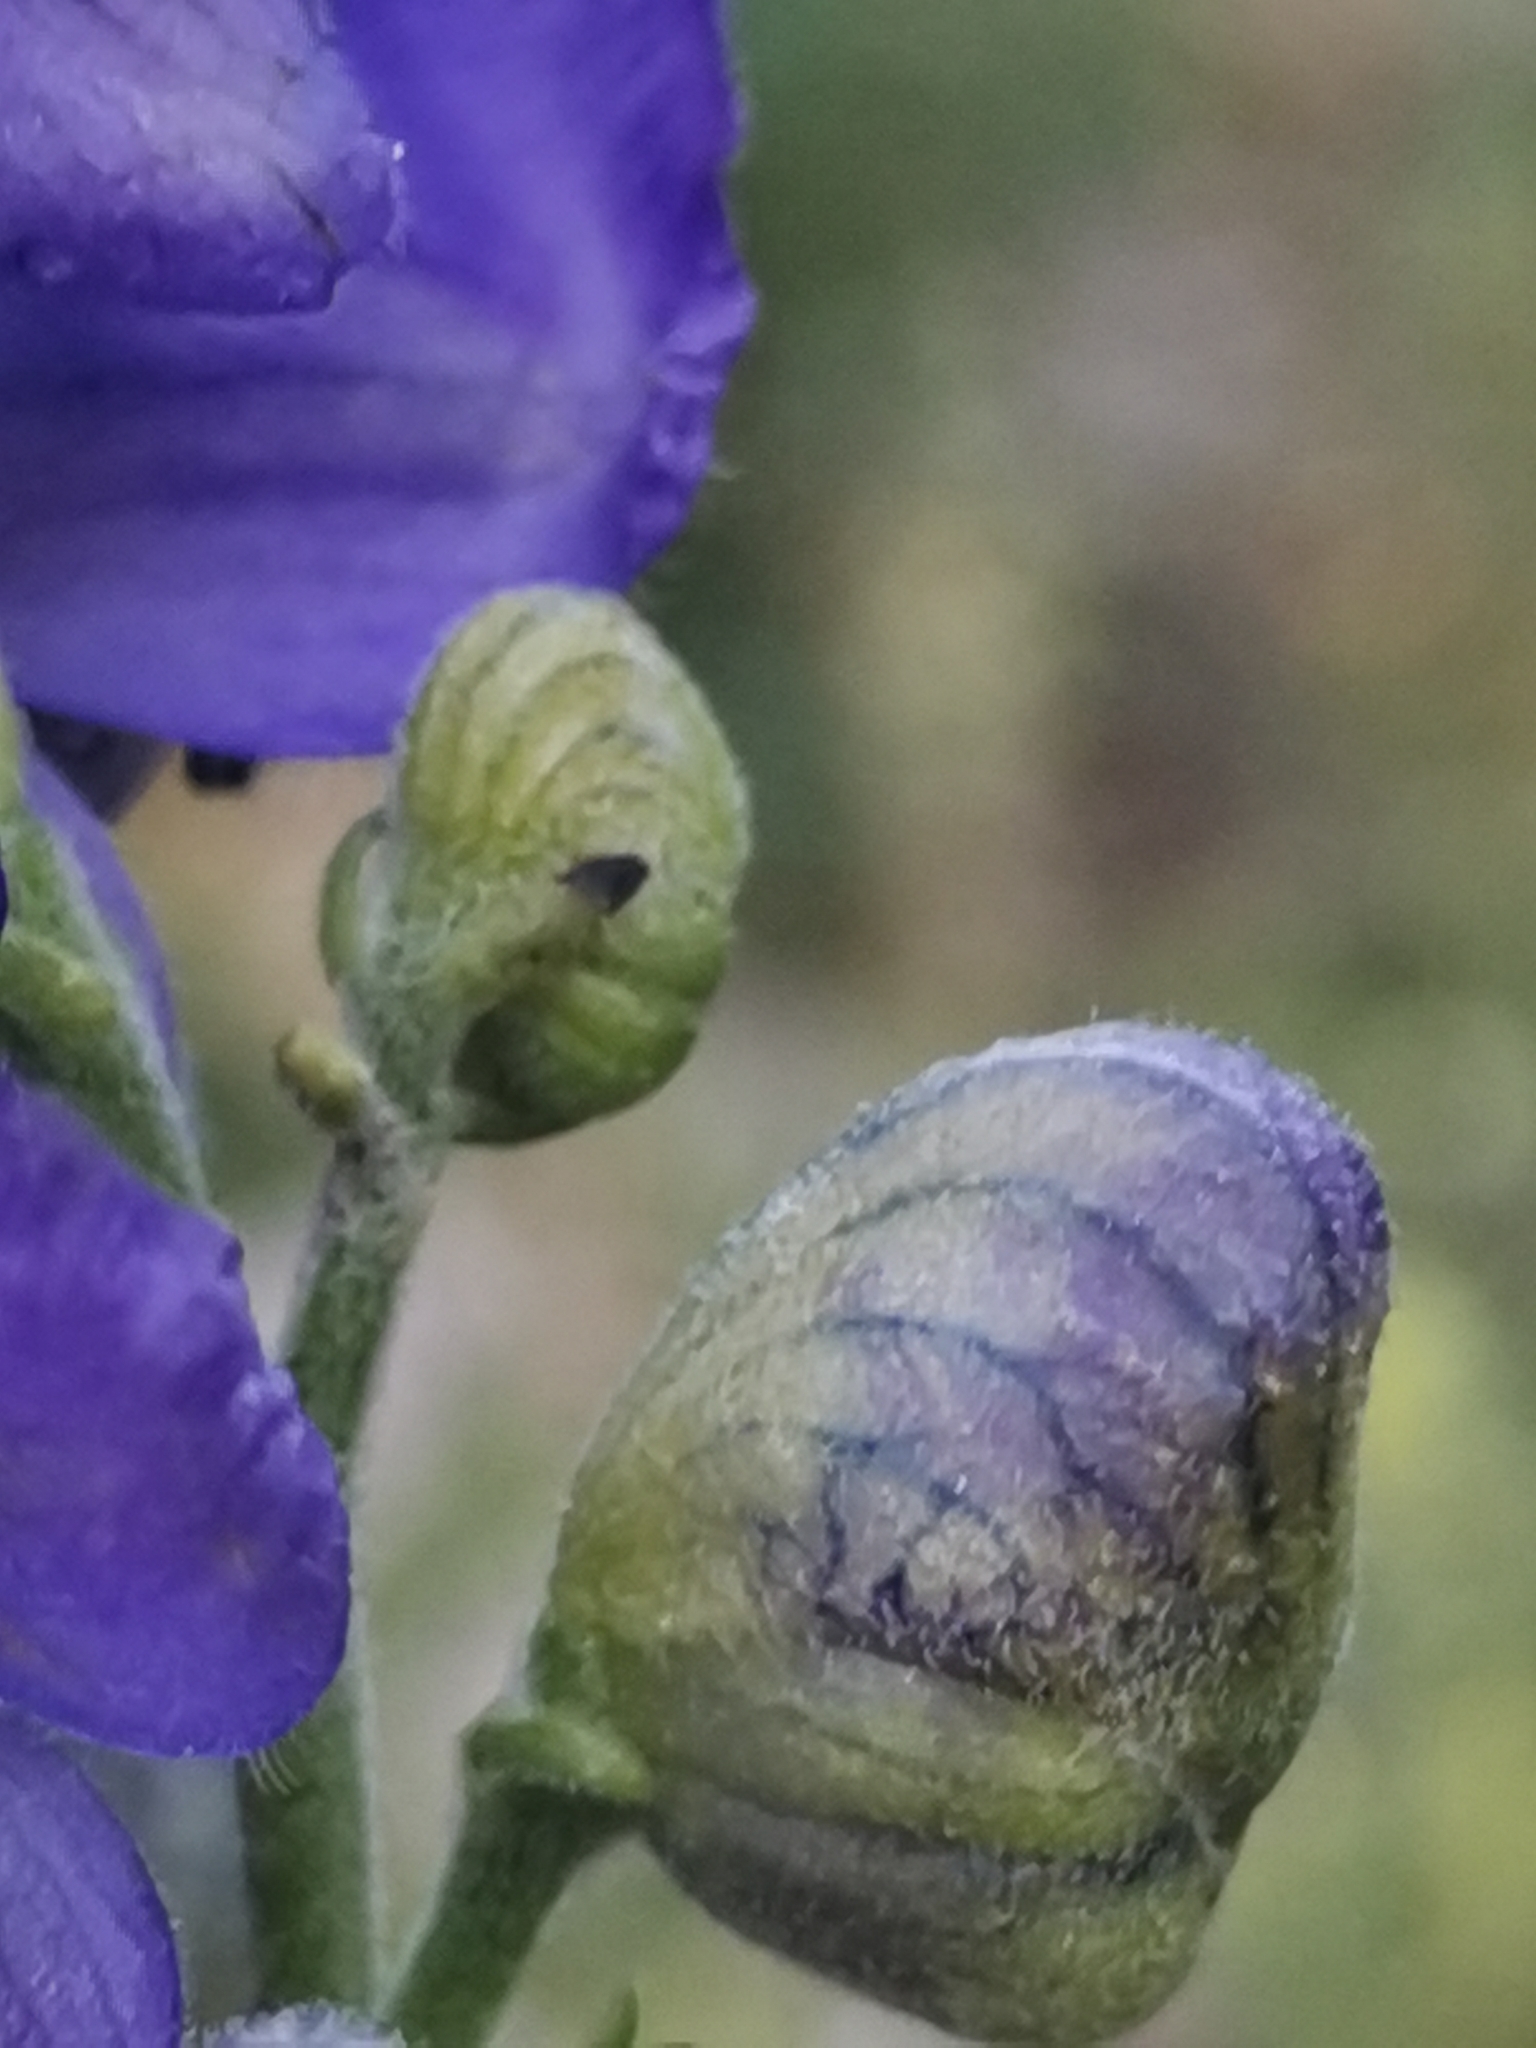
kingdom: Plantae
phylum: Tracheophyta
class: Magnoliopsida
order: Ranunculales
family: Ranunculaceae
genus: Aconitum
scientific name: Aconitum napellus
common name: Garden monkshood
